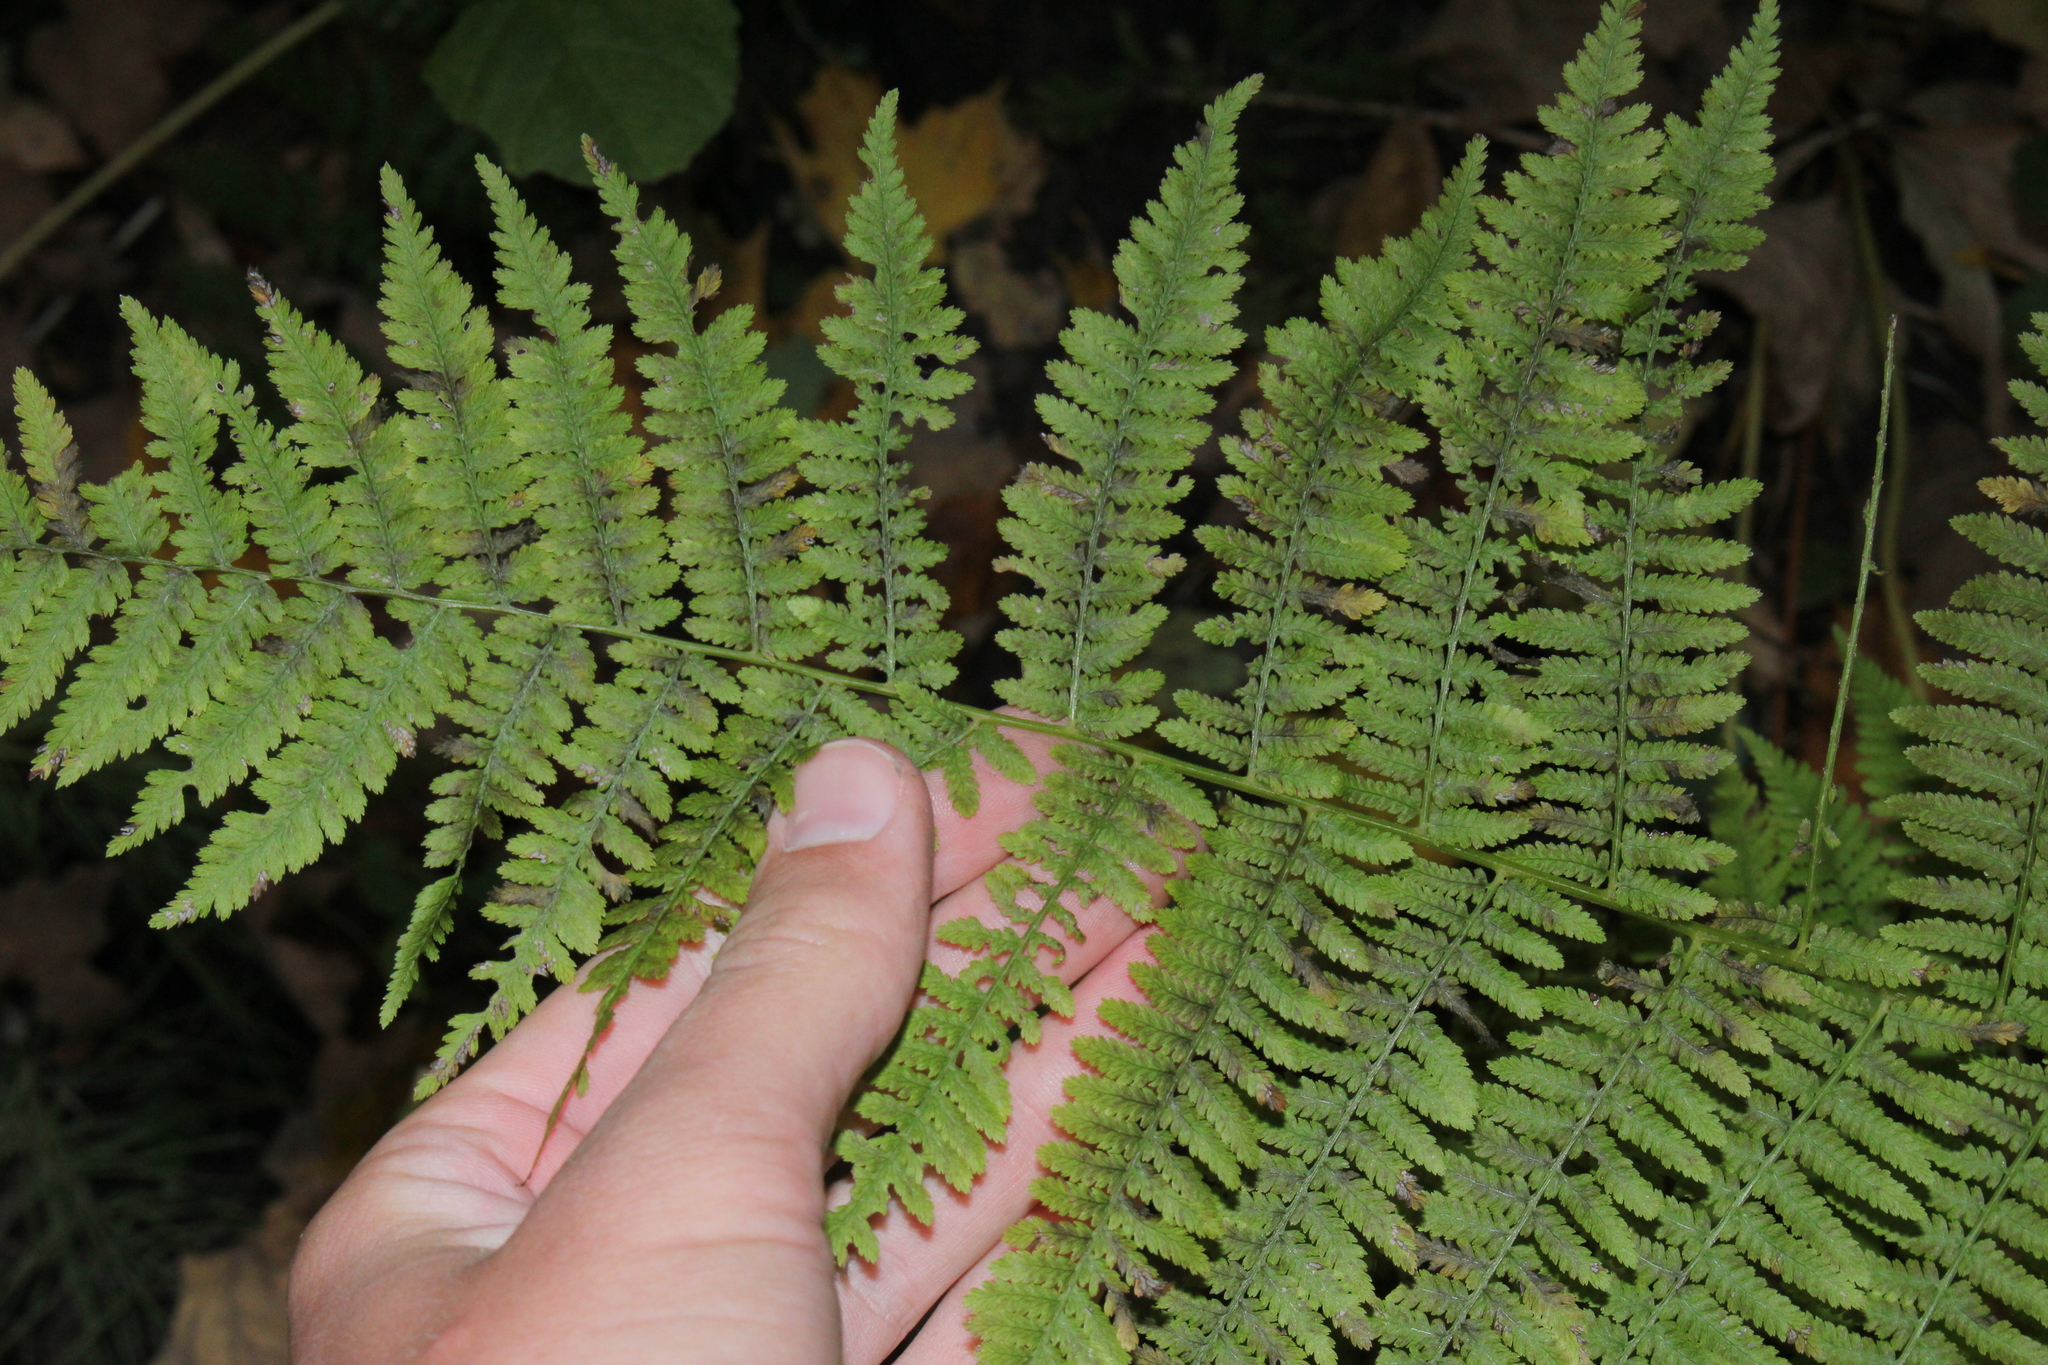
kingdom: Plantae
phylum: Tracheophyta
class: Polypodiopsida
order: Polypodiales
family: Athyriaceae
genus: Athyrium
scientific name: Athyrium angustum
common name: Northern lady fern
